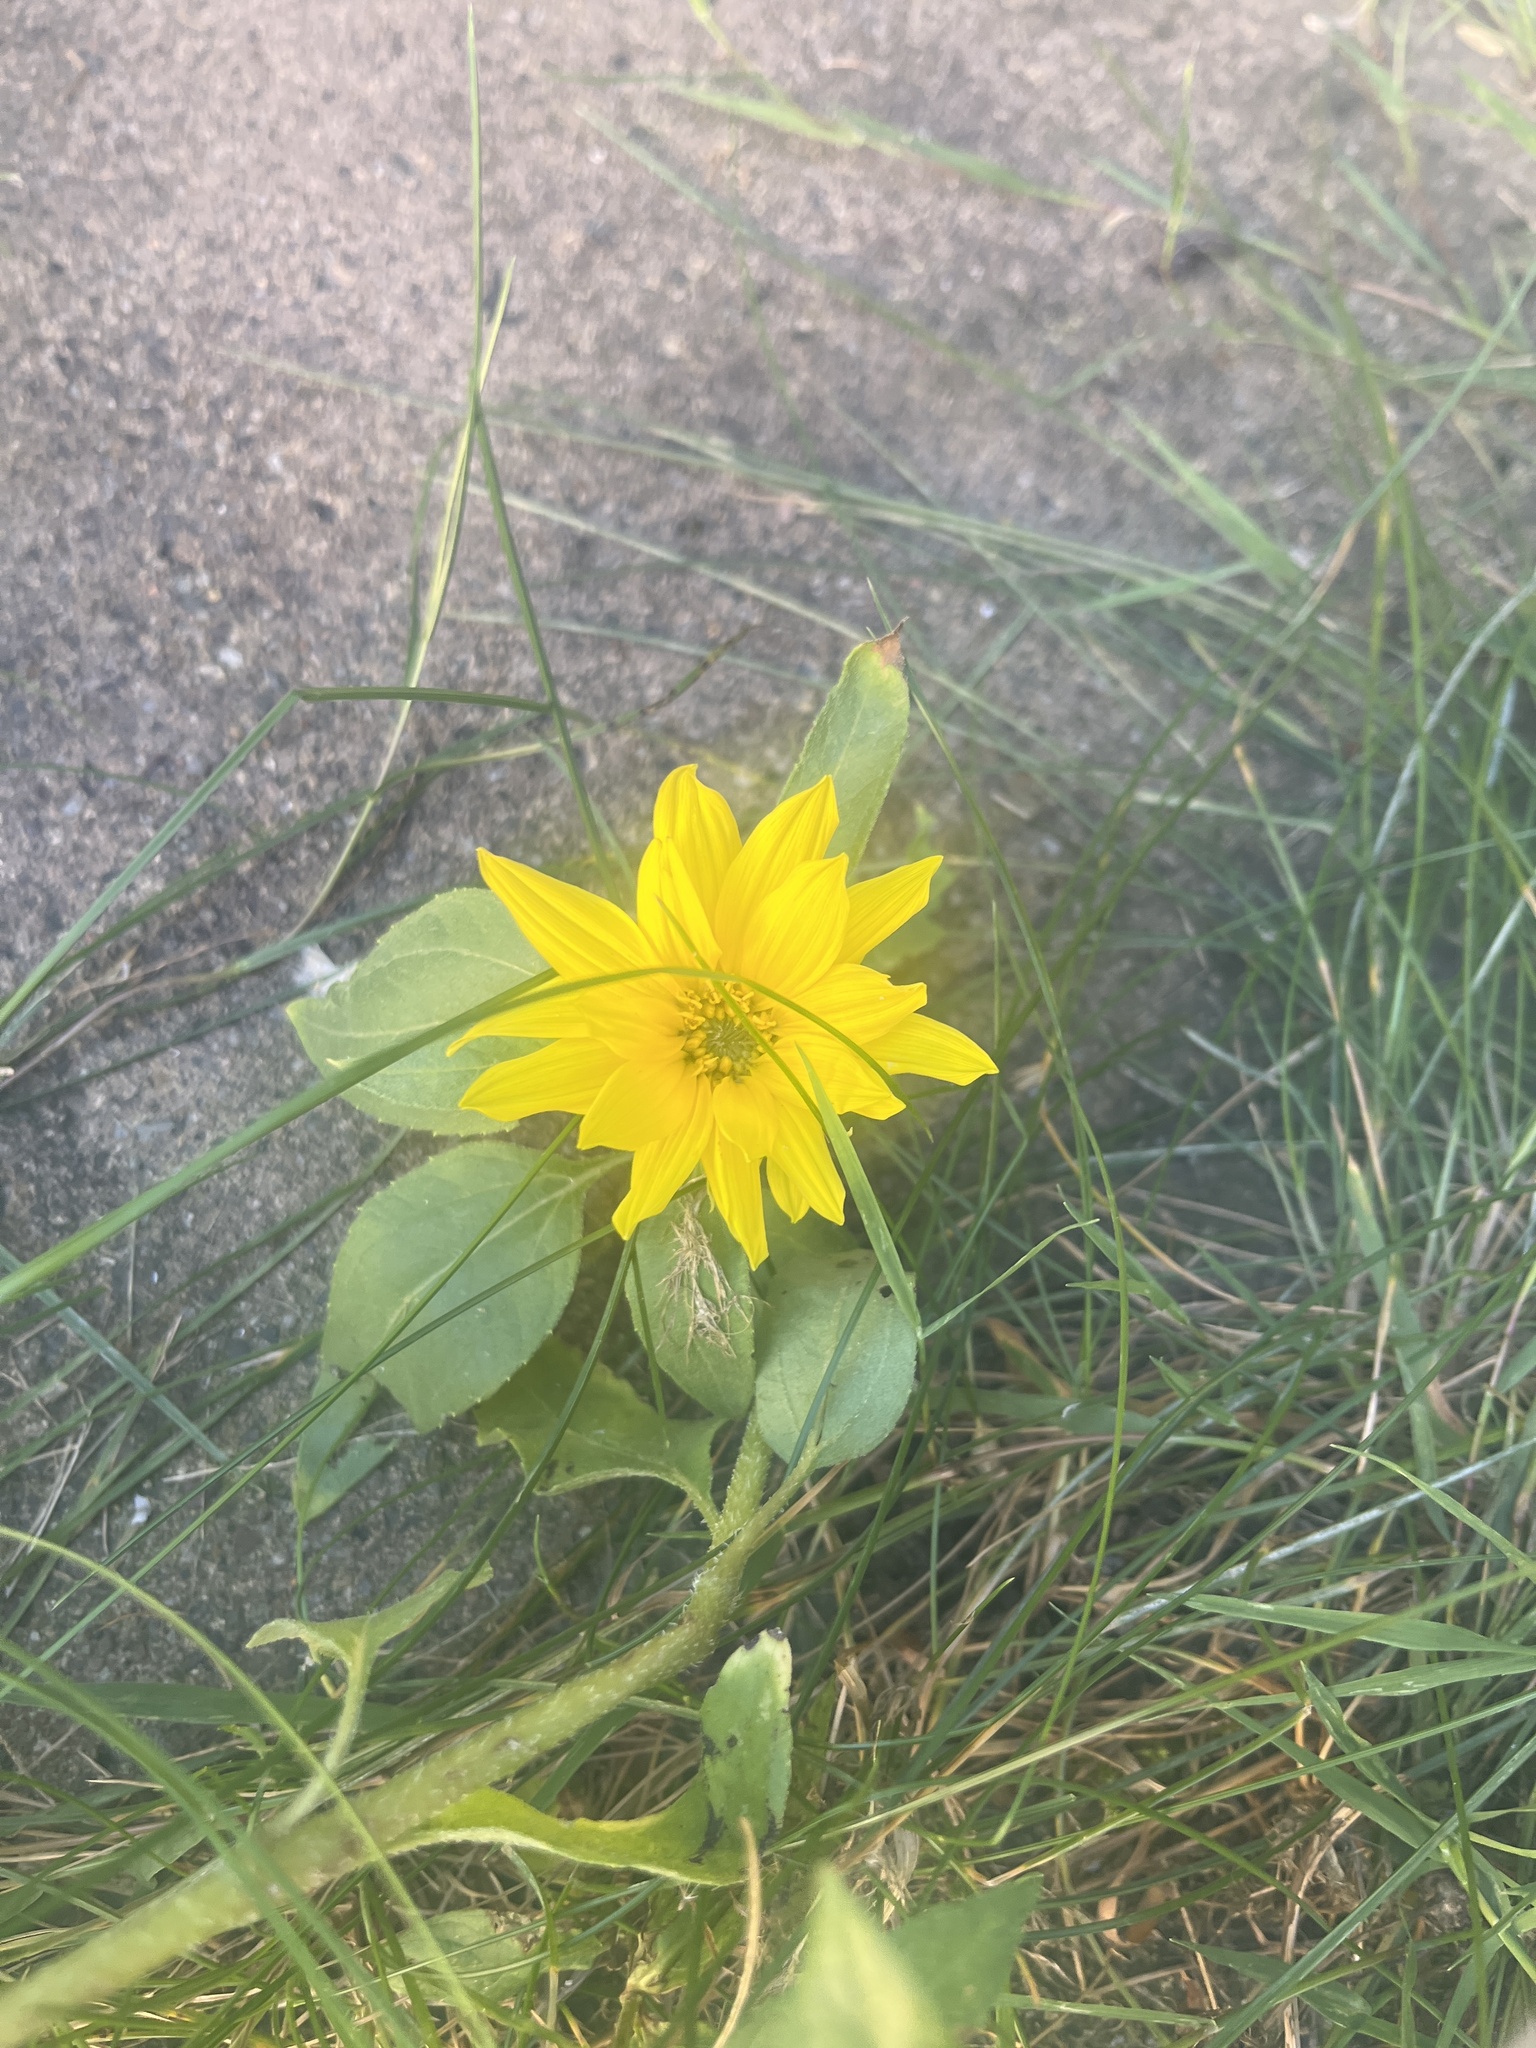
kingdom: Plantae
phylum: Tracheophyta
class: Magnoliopsida
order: Asterales
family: Asteraceae
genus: Helianthus
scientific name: Helianthus annuus
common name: Sunflower
